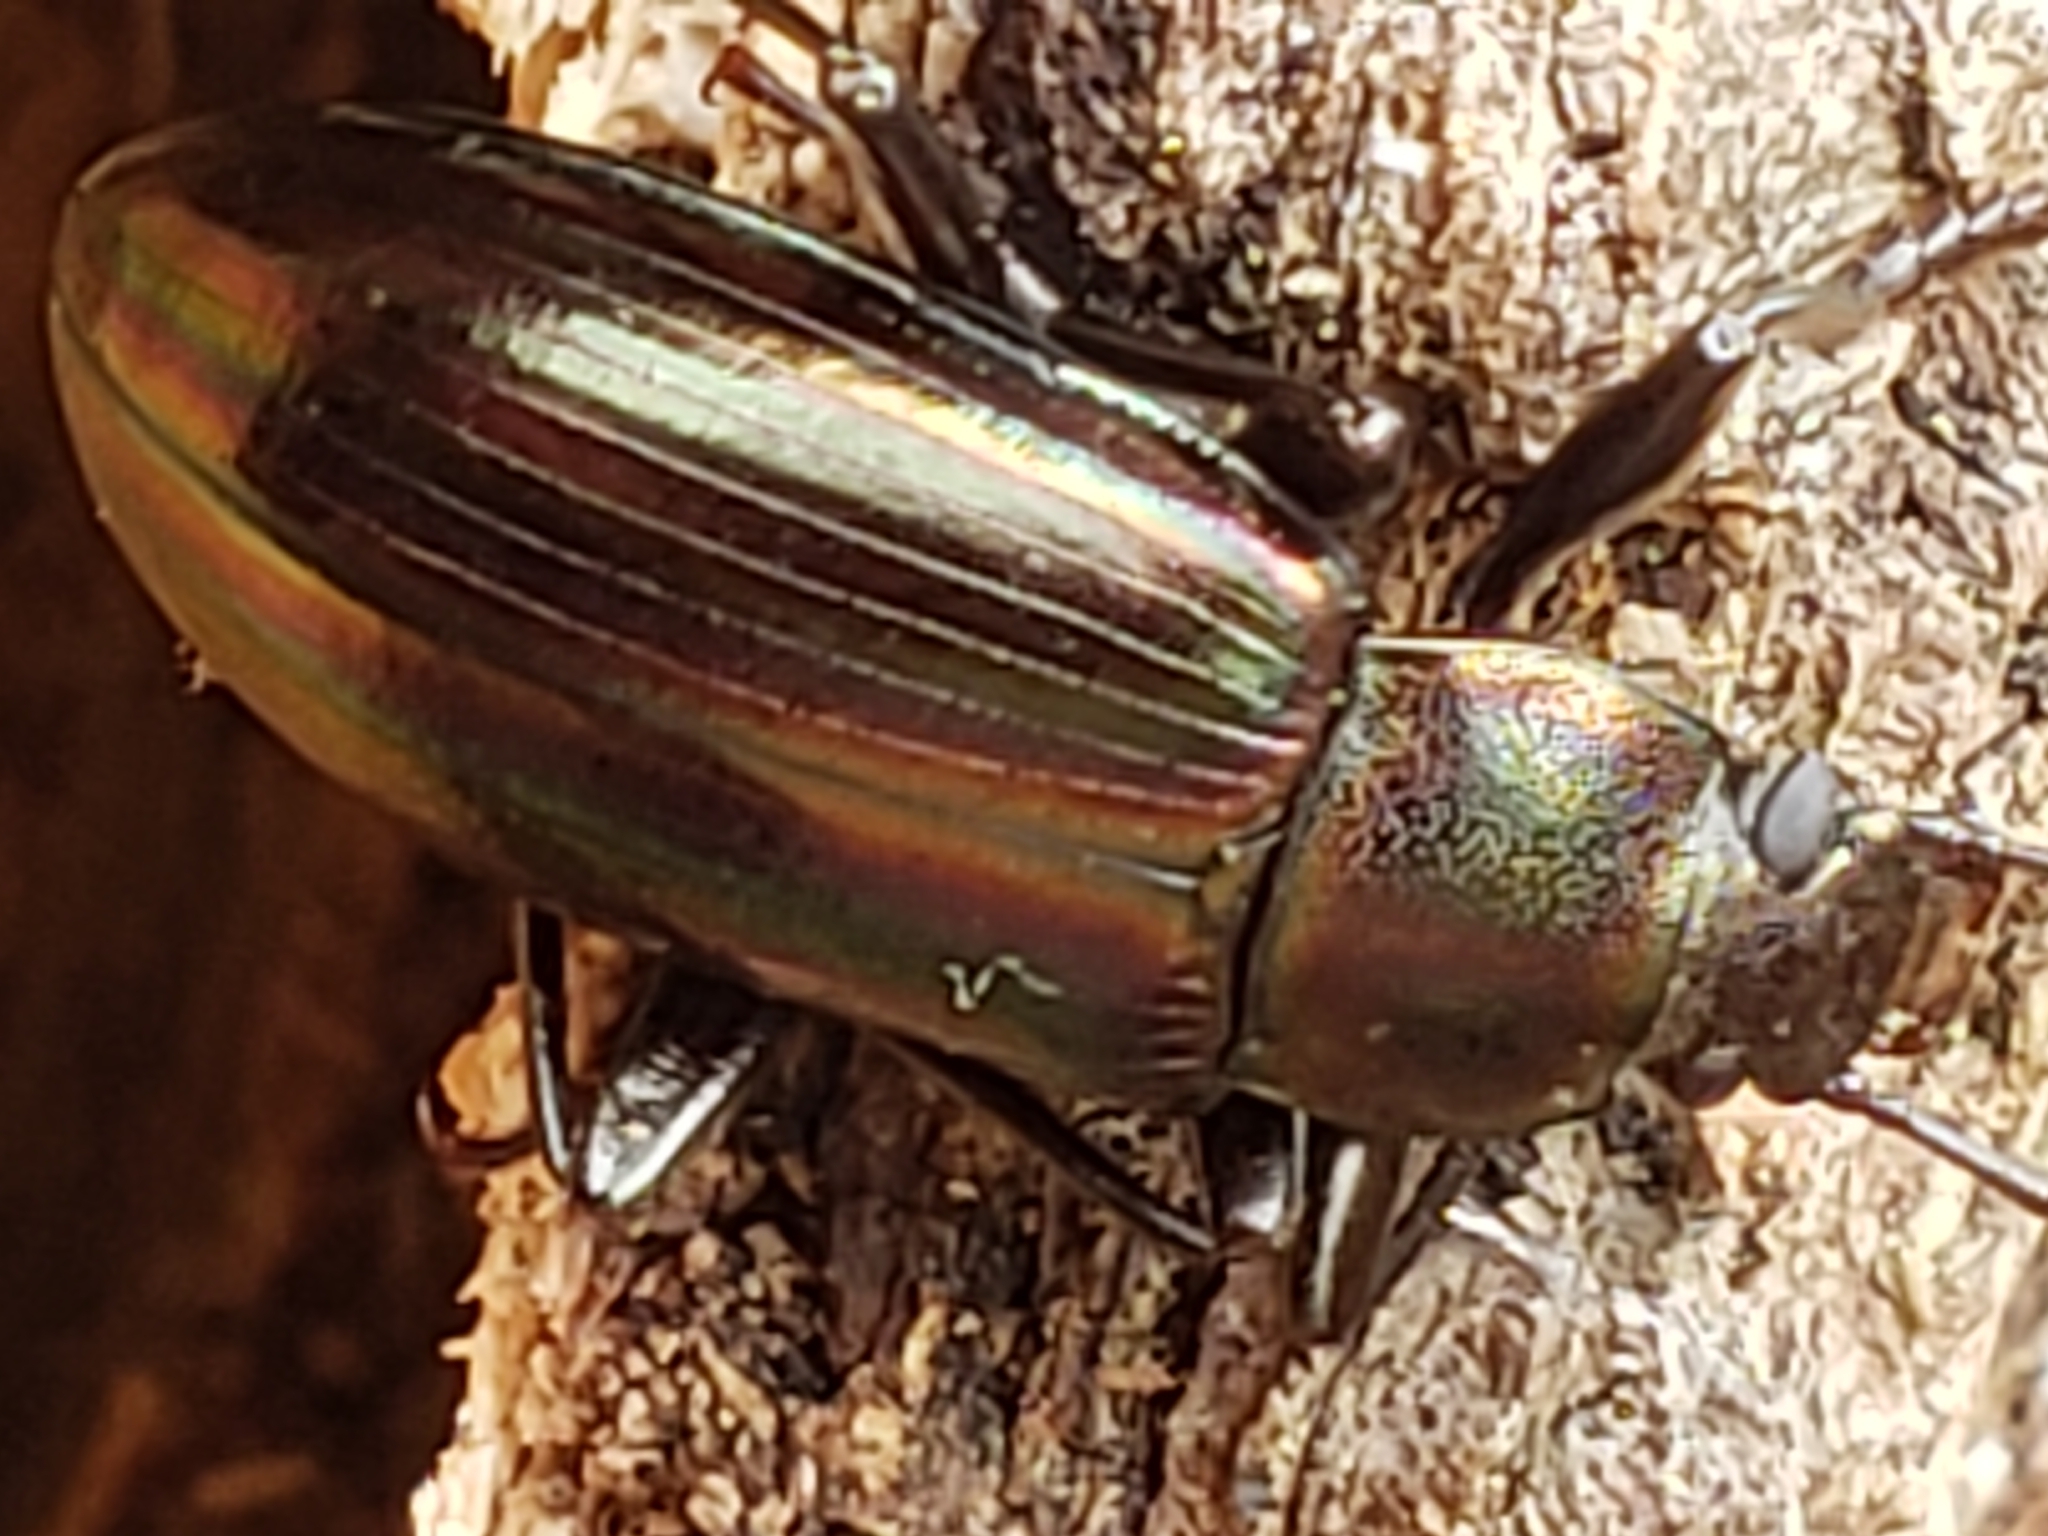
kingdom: Animalia
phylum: Arthropoda
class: Insecta
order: Coleoptera
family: Tenebrionidae
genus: Tarpela
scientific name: Tarpela micans
